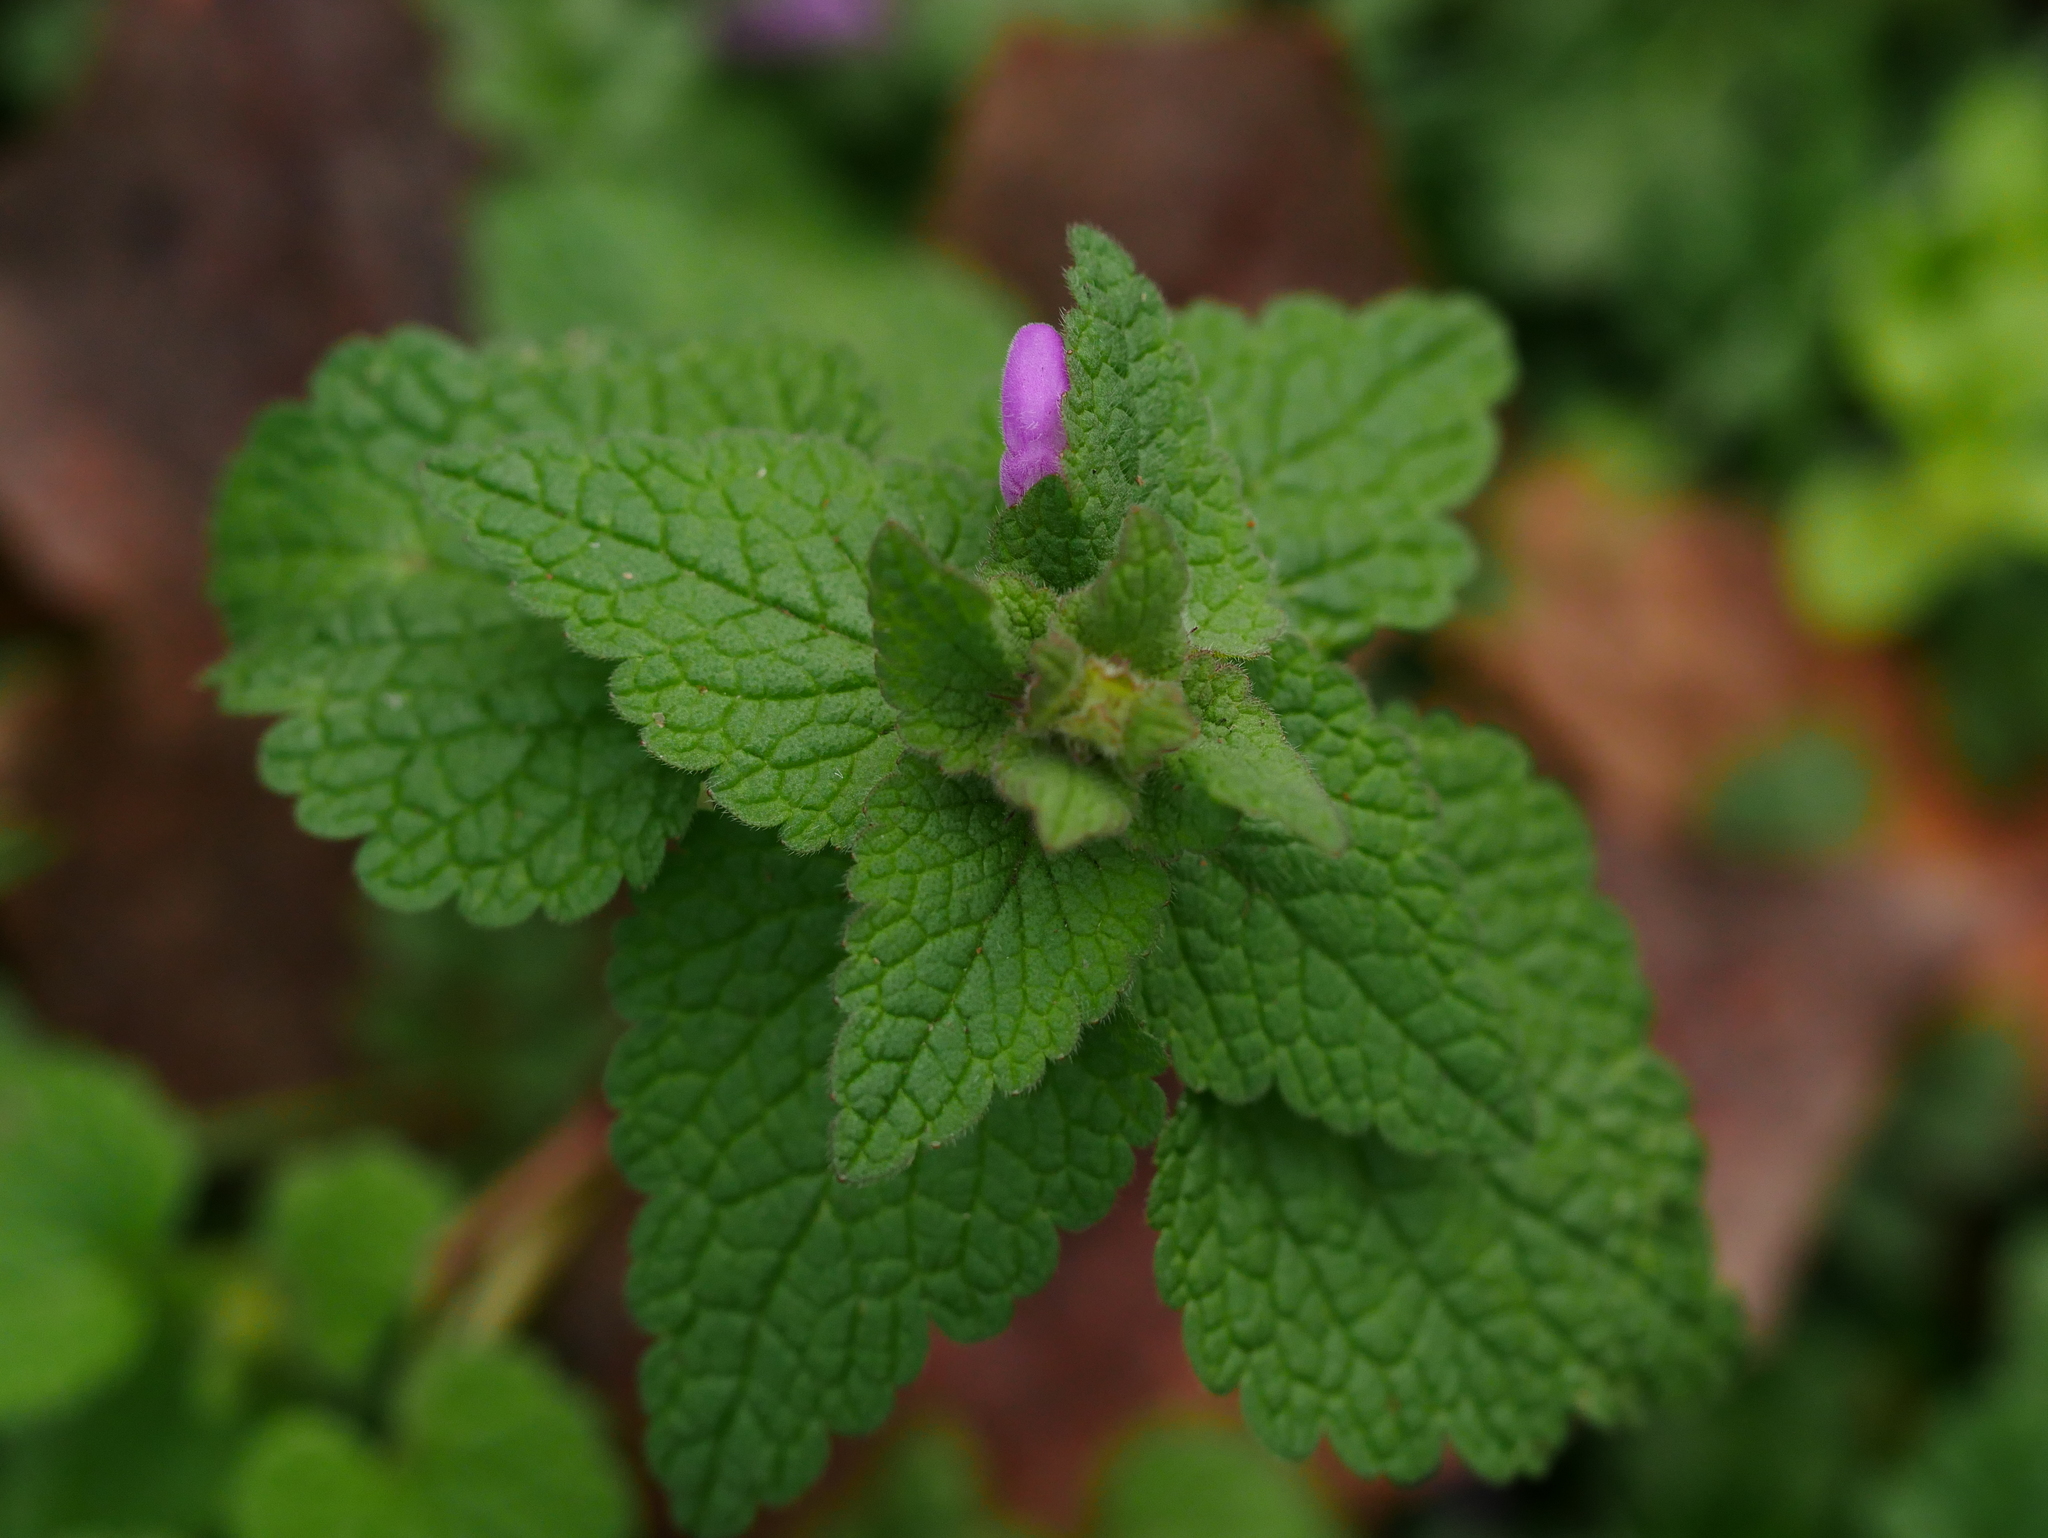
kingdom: Plantae
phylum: Tracheophyta
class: Magnoliopsida
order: Lamiales
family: Lamiaceae
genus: Lamium
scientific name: Lamium purpureum
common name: Red dead-nettle
